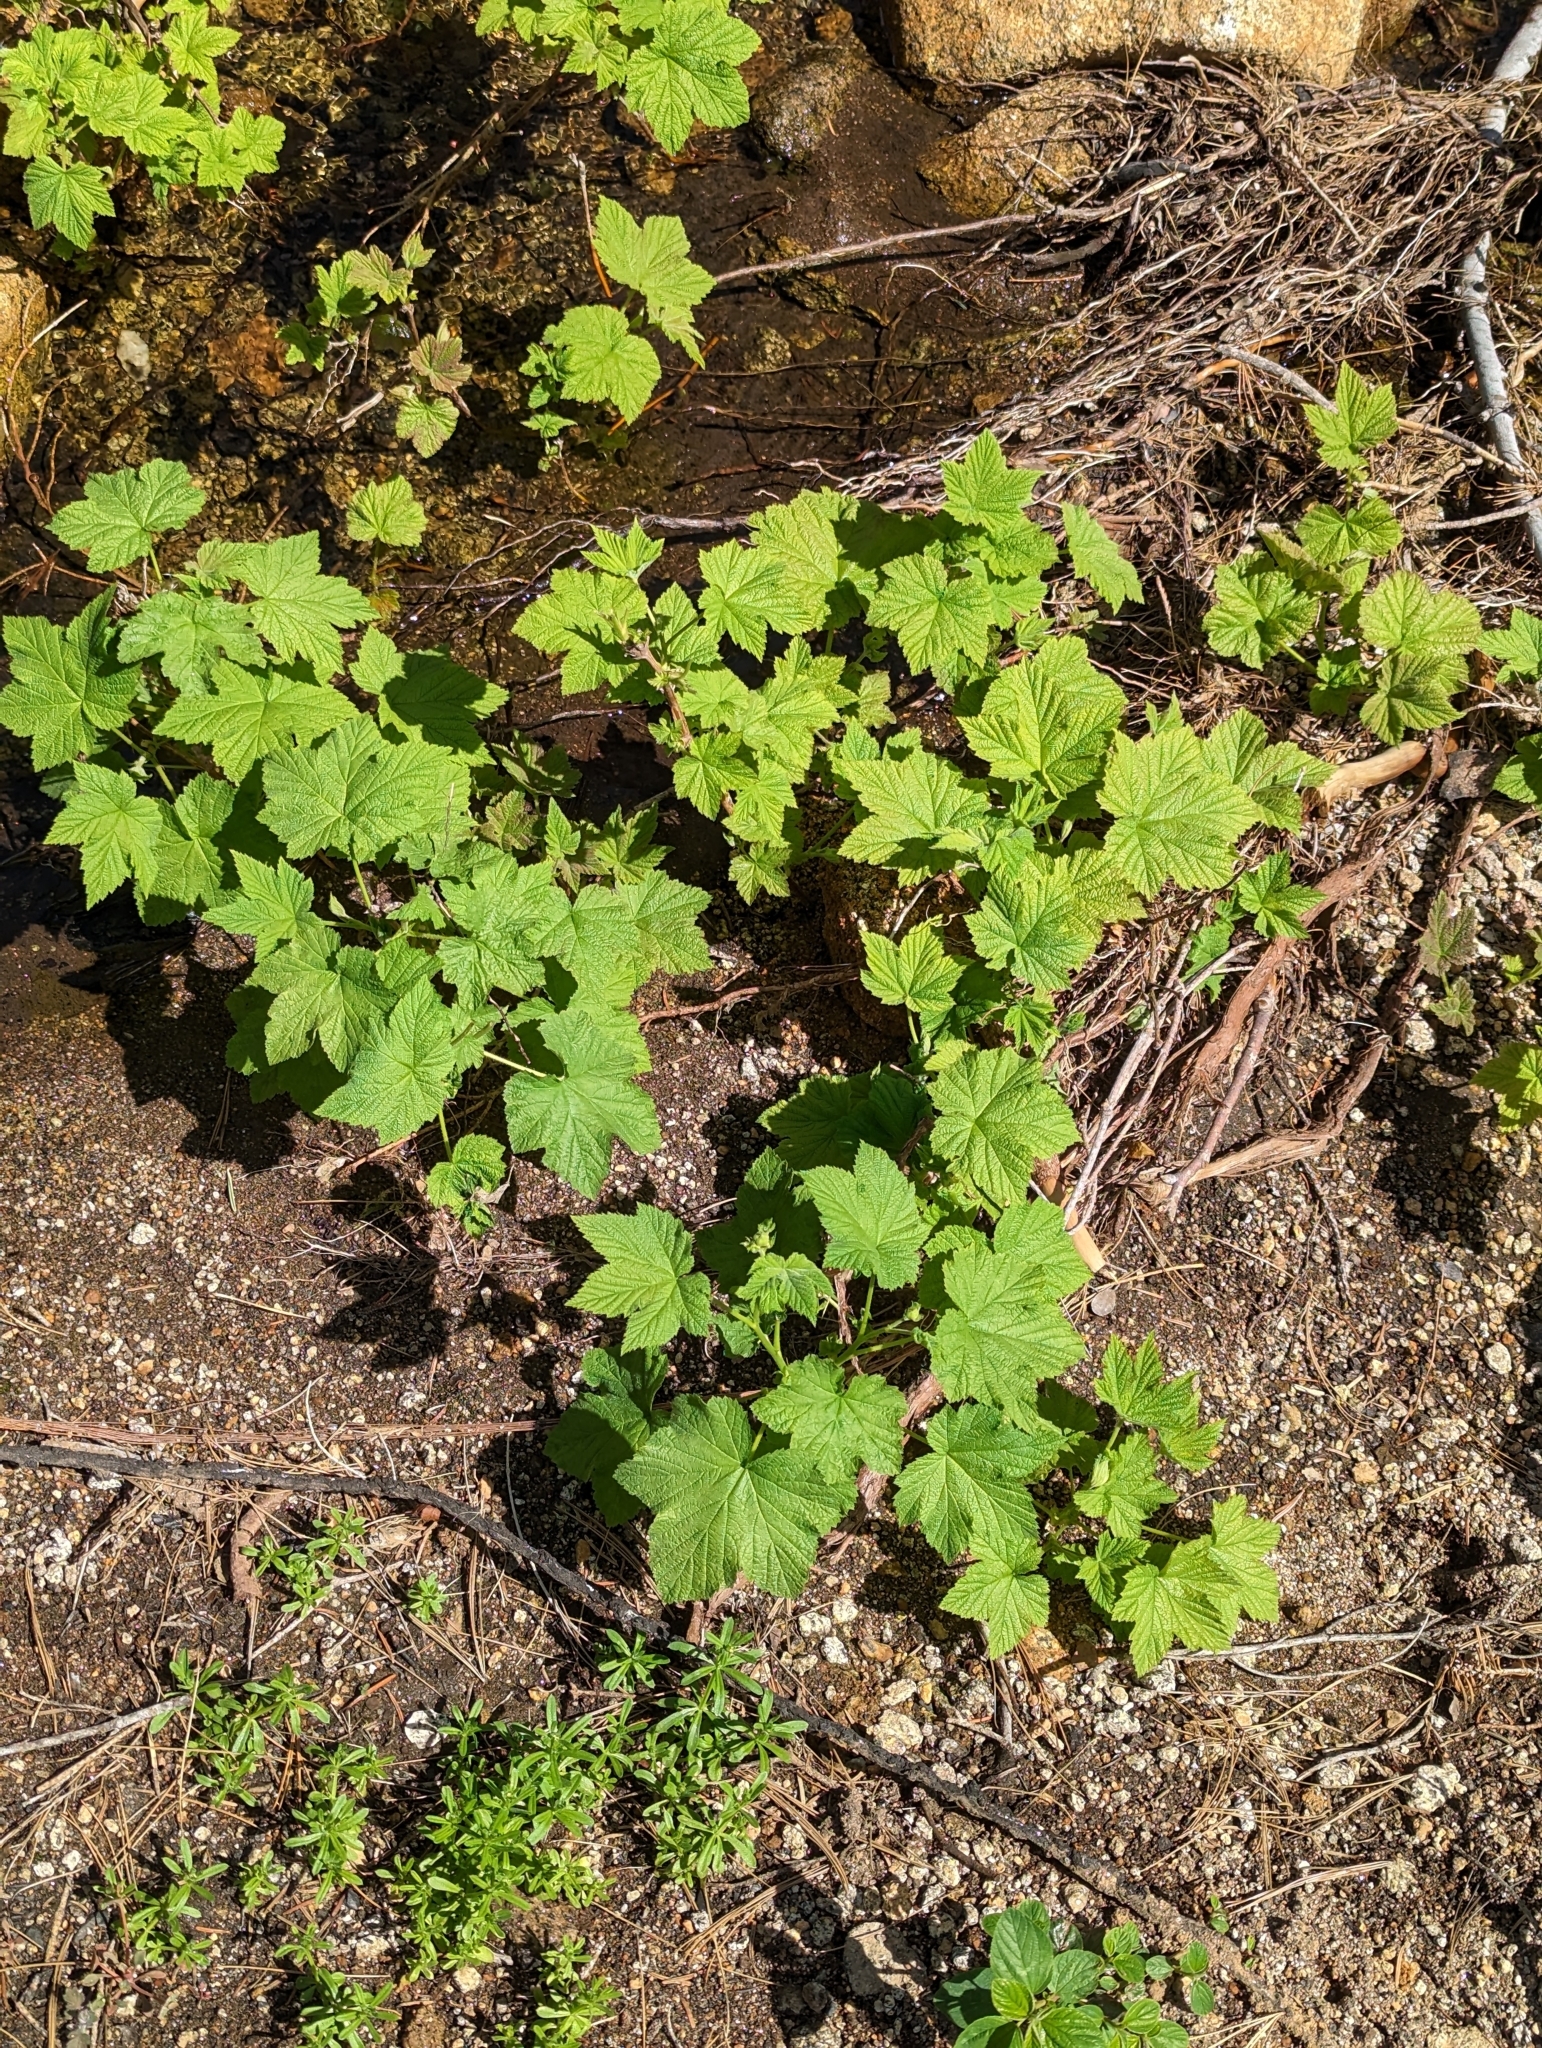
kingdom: Plantae
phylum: Tracheophyta
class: Magnoliopsida
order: Rosales
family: Rosaceae
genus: Rubus
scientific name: Rubus parviflorus
